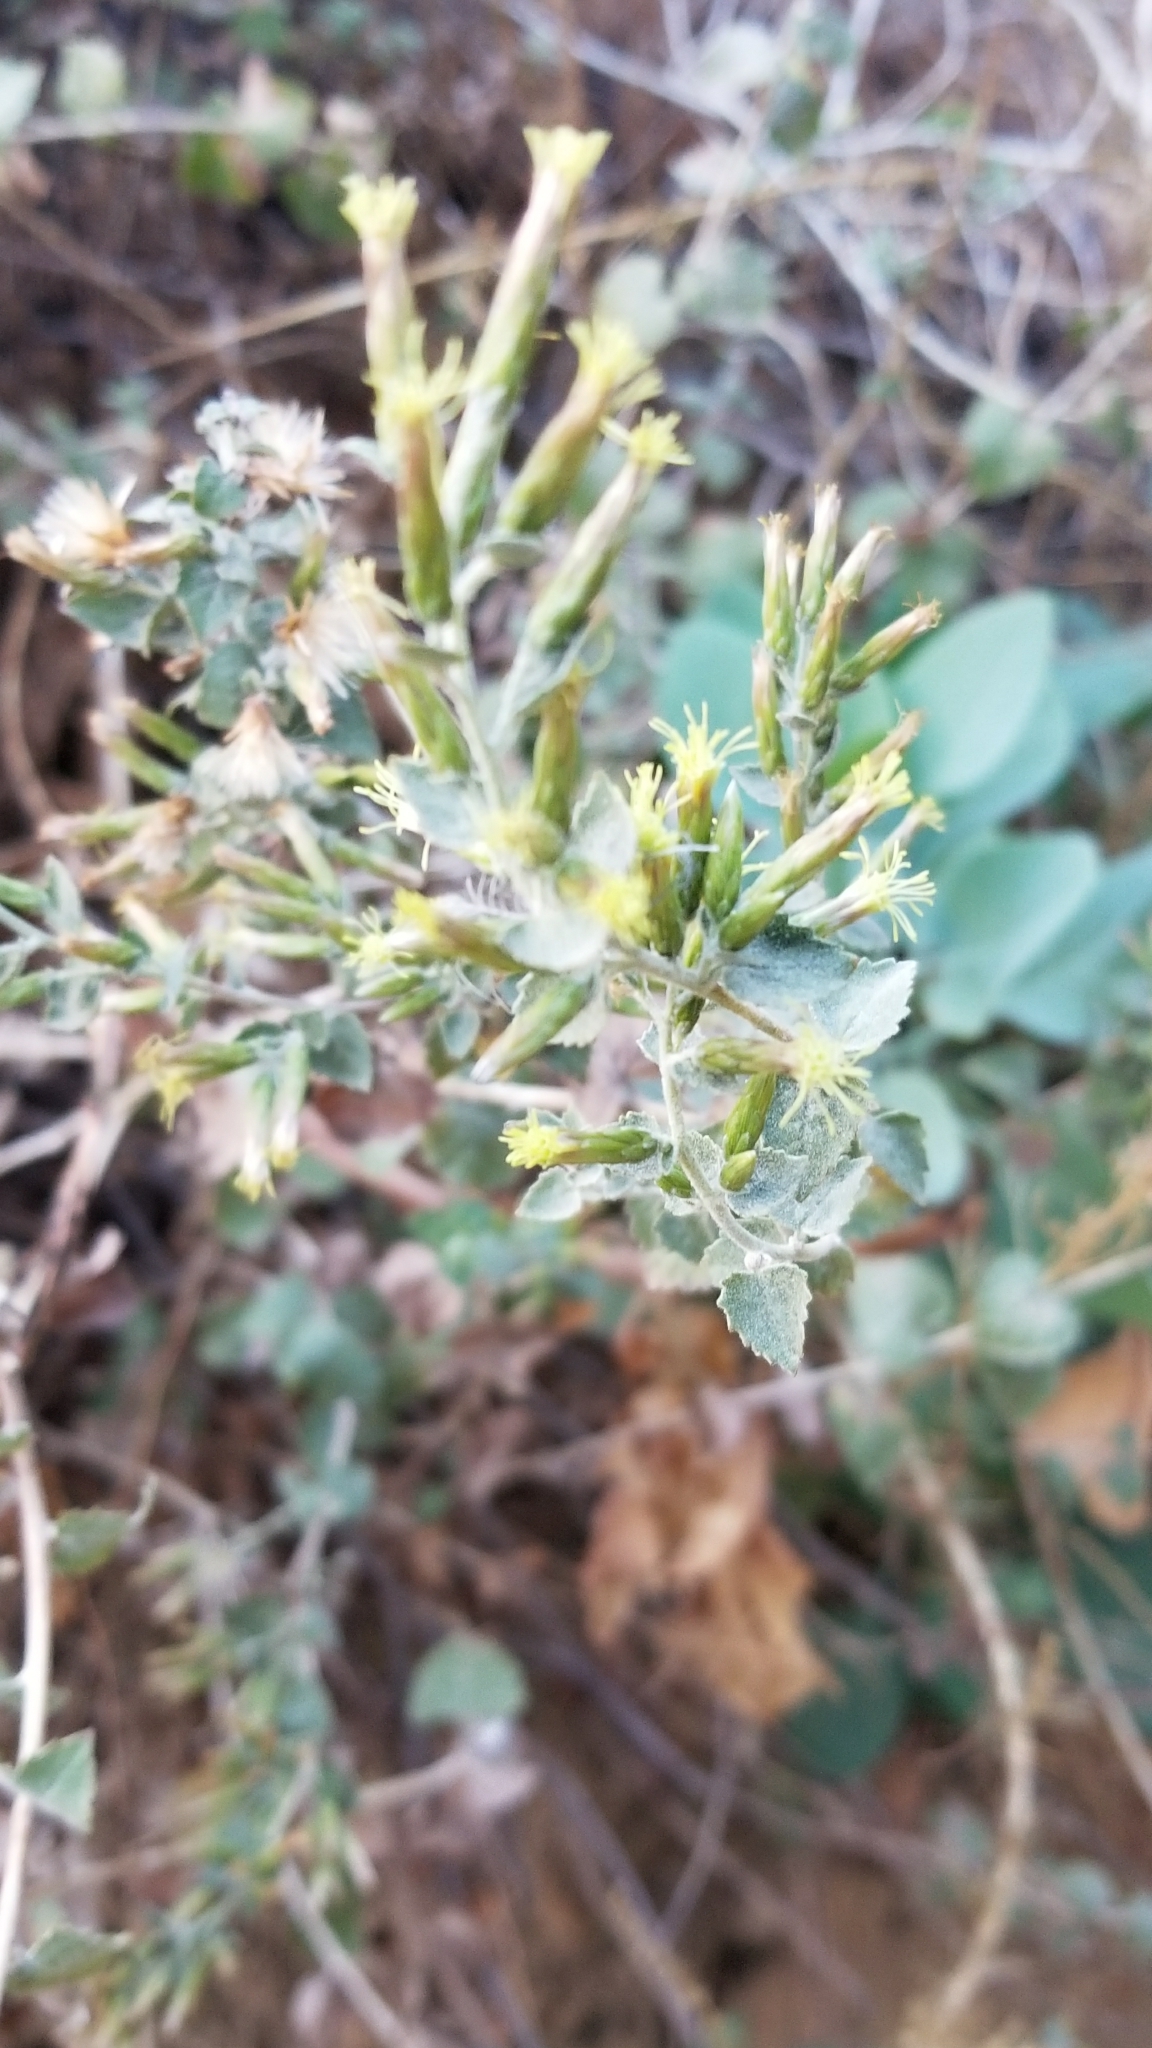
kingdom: Plantae
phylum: Tracheophyta
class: Magnoliopsida
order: Asterales
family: Asteraceae
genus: Brickellia
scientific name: Brickellia californica
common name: California brickellbush
